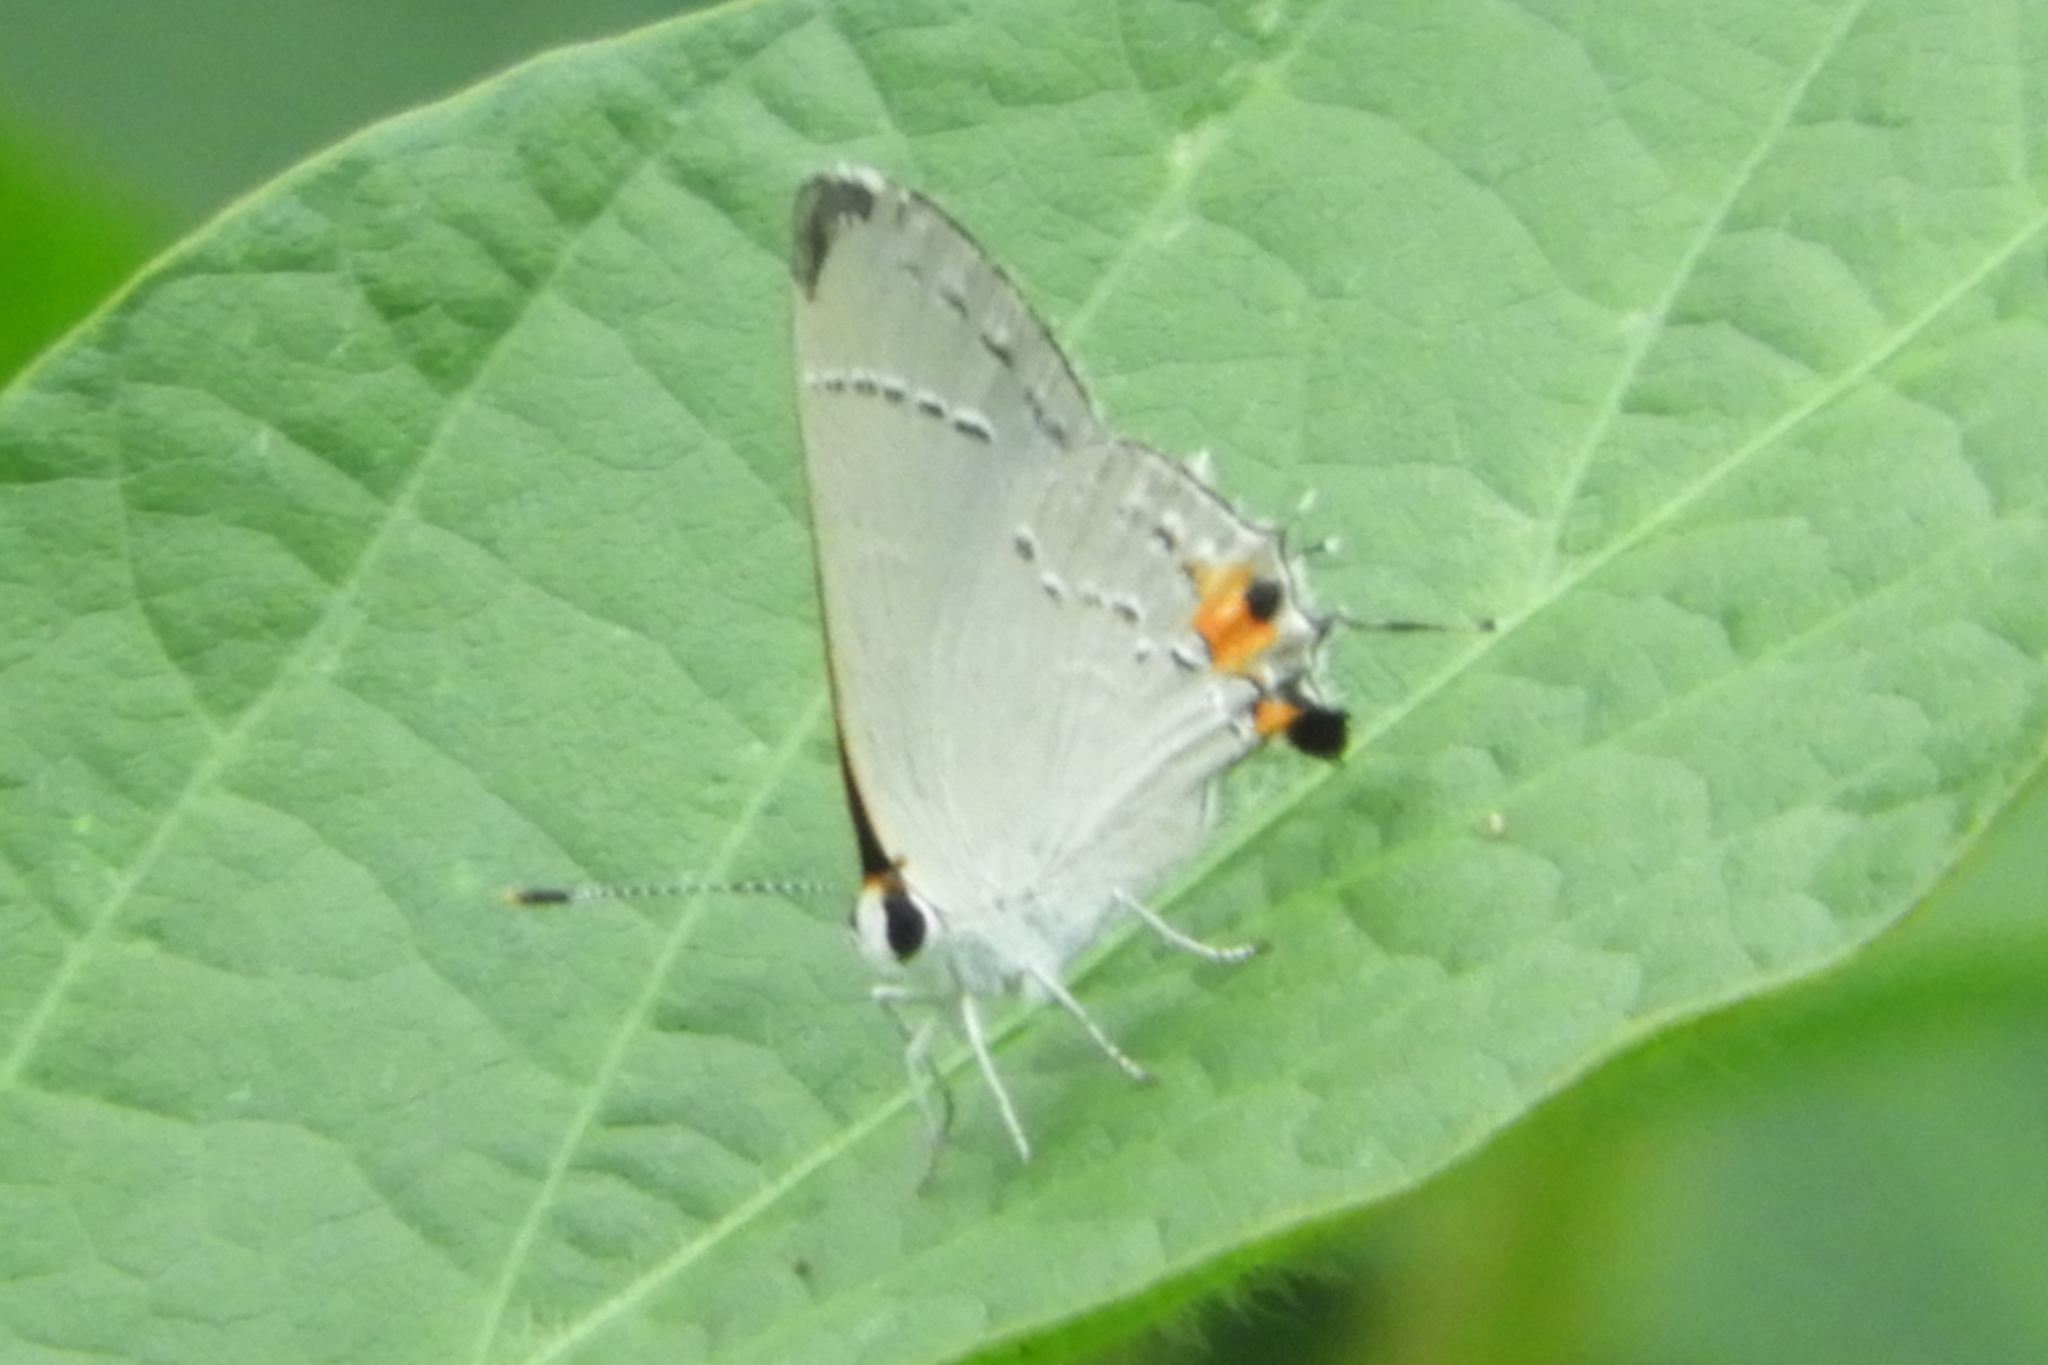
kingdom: Animalia
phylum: Arthropoda
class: Insecta
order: Lepidoptera
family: Lycaenidae
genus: Strymon
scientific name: Strymon melinus
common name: Gray hairstreak
